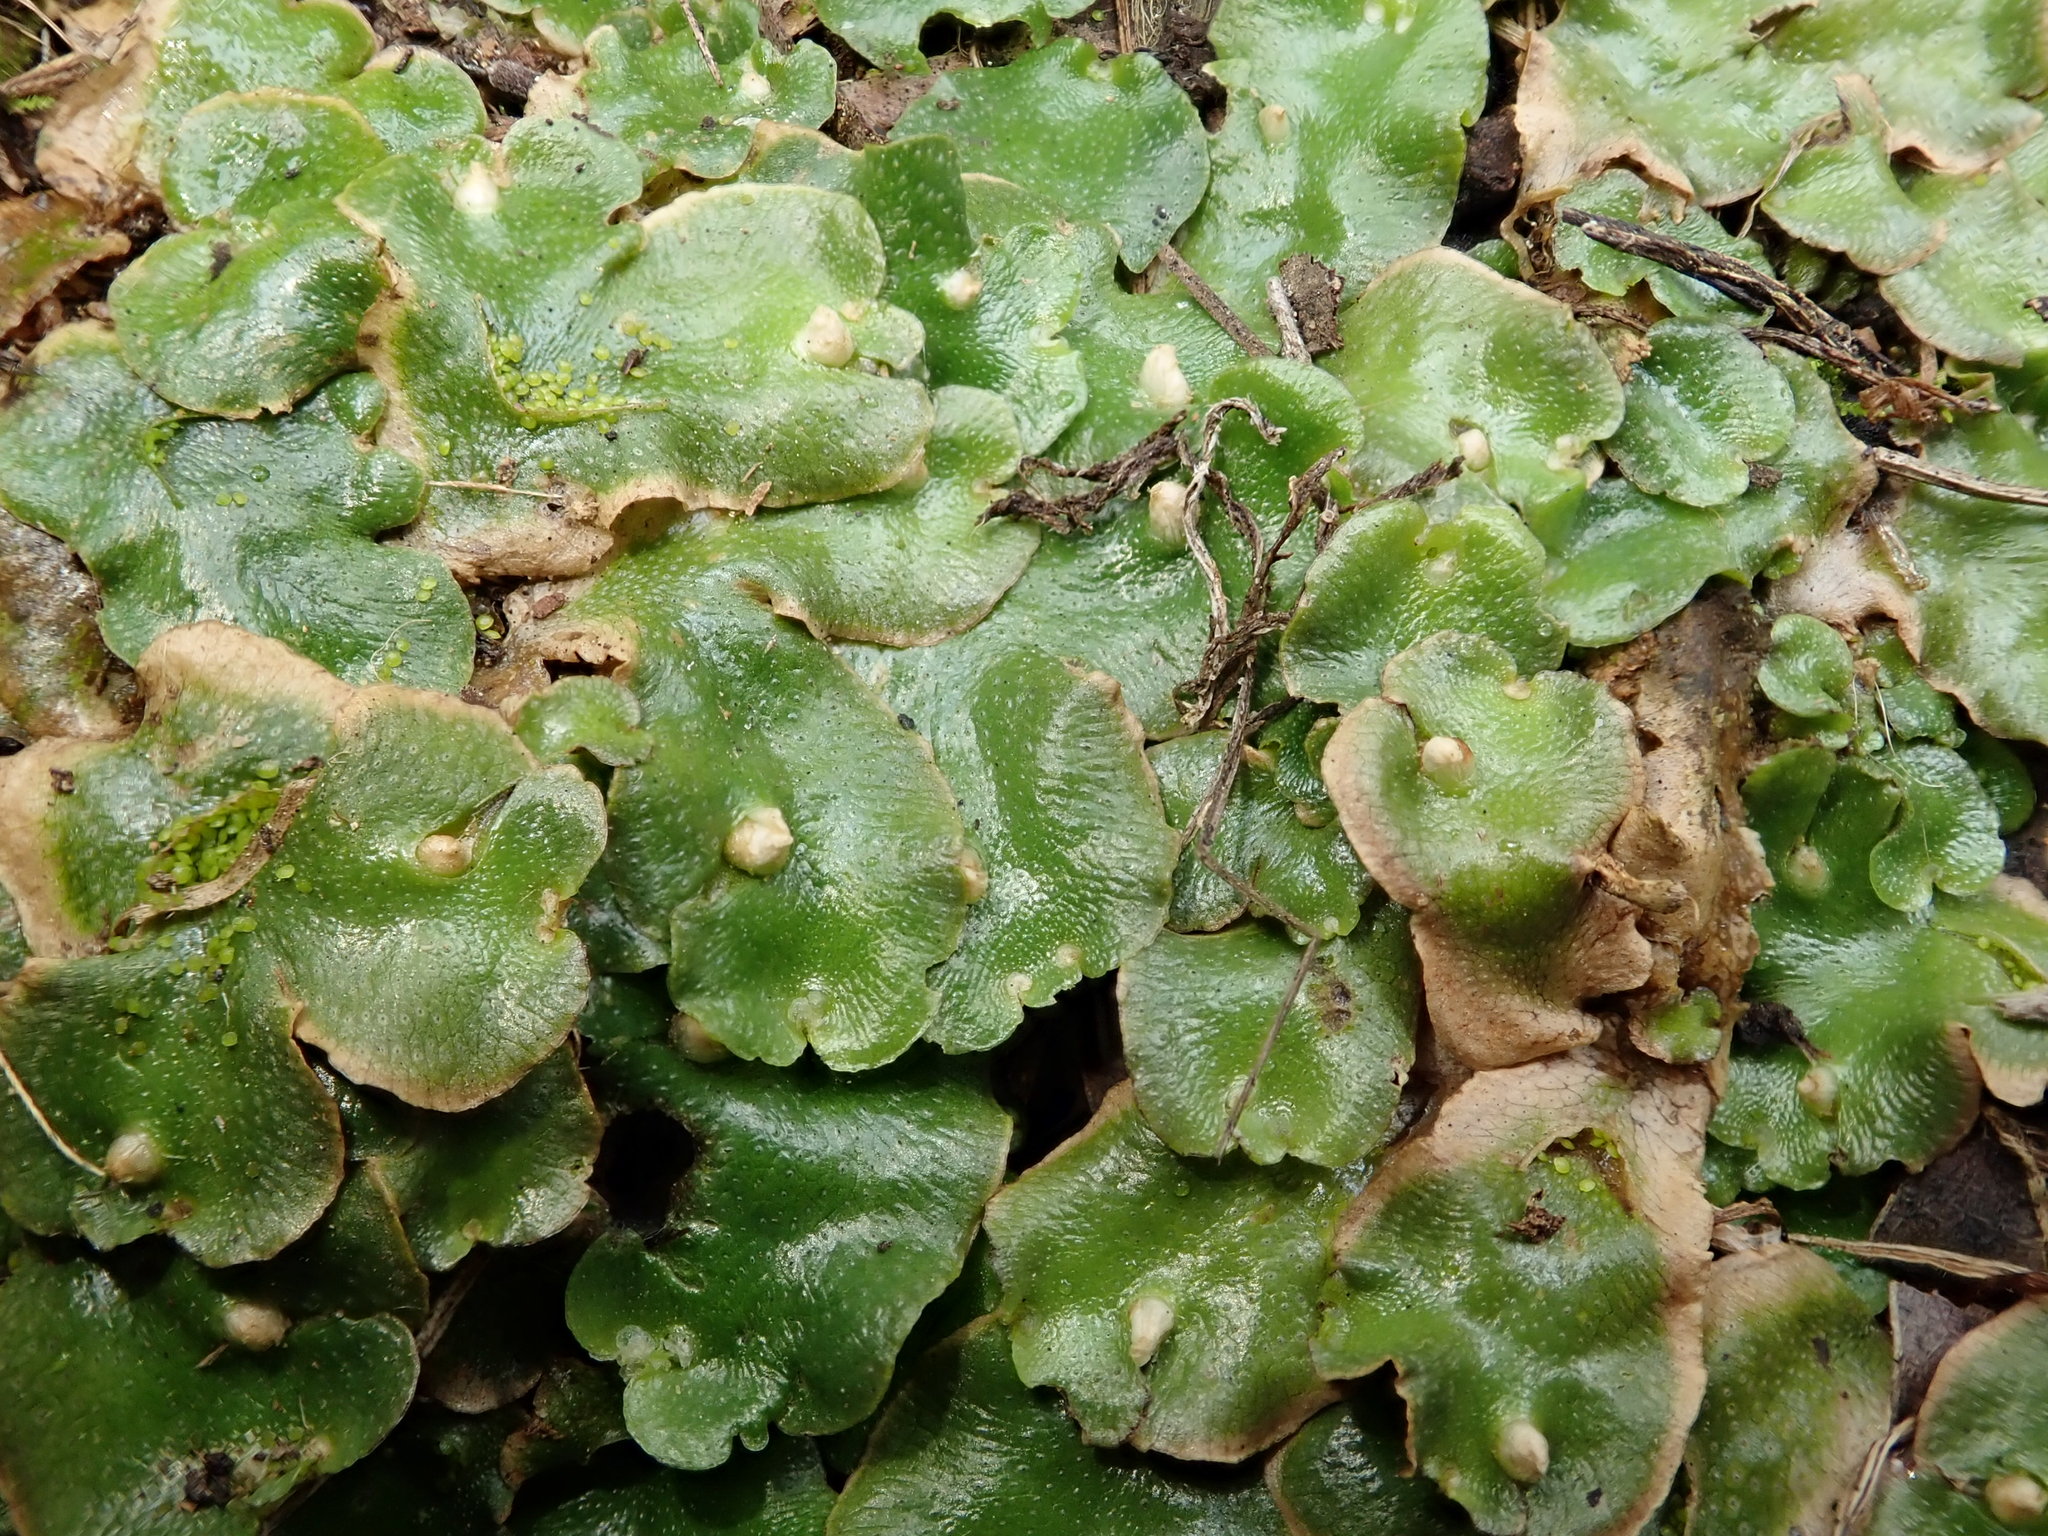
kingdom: Plantae
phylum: Marchantiophyta
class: Marchantiopsida
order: Lunulariales
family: Lunulariaceae
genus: Lunularia
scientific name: Lunularia cruciata
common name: Crescent-cup liverwort
